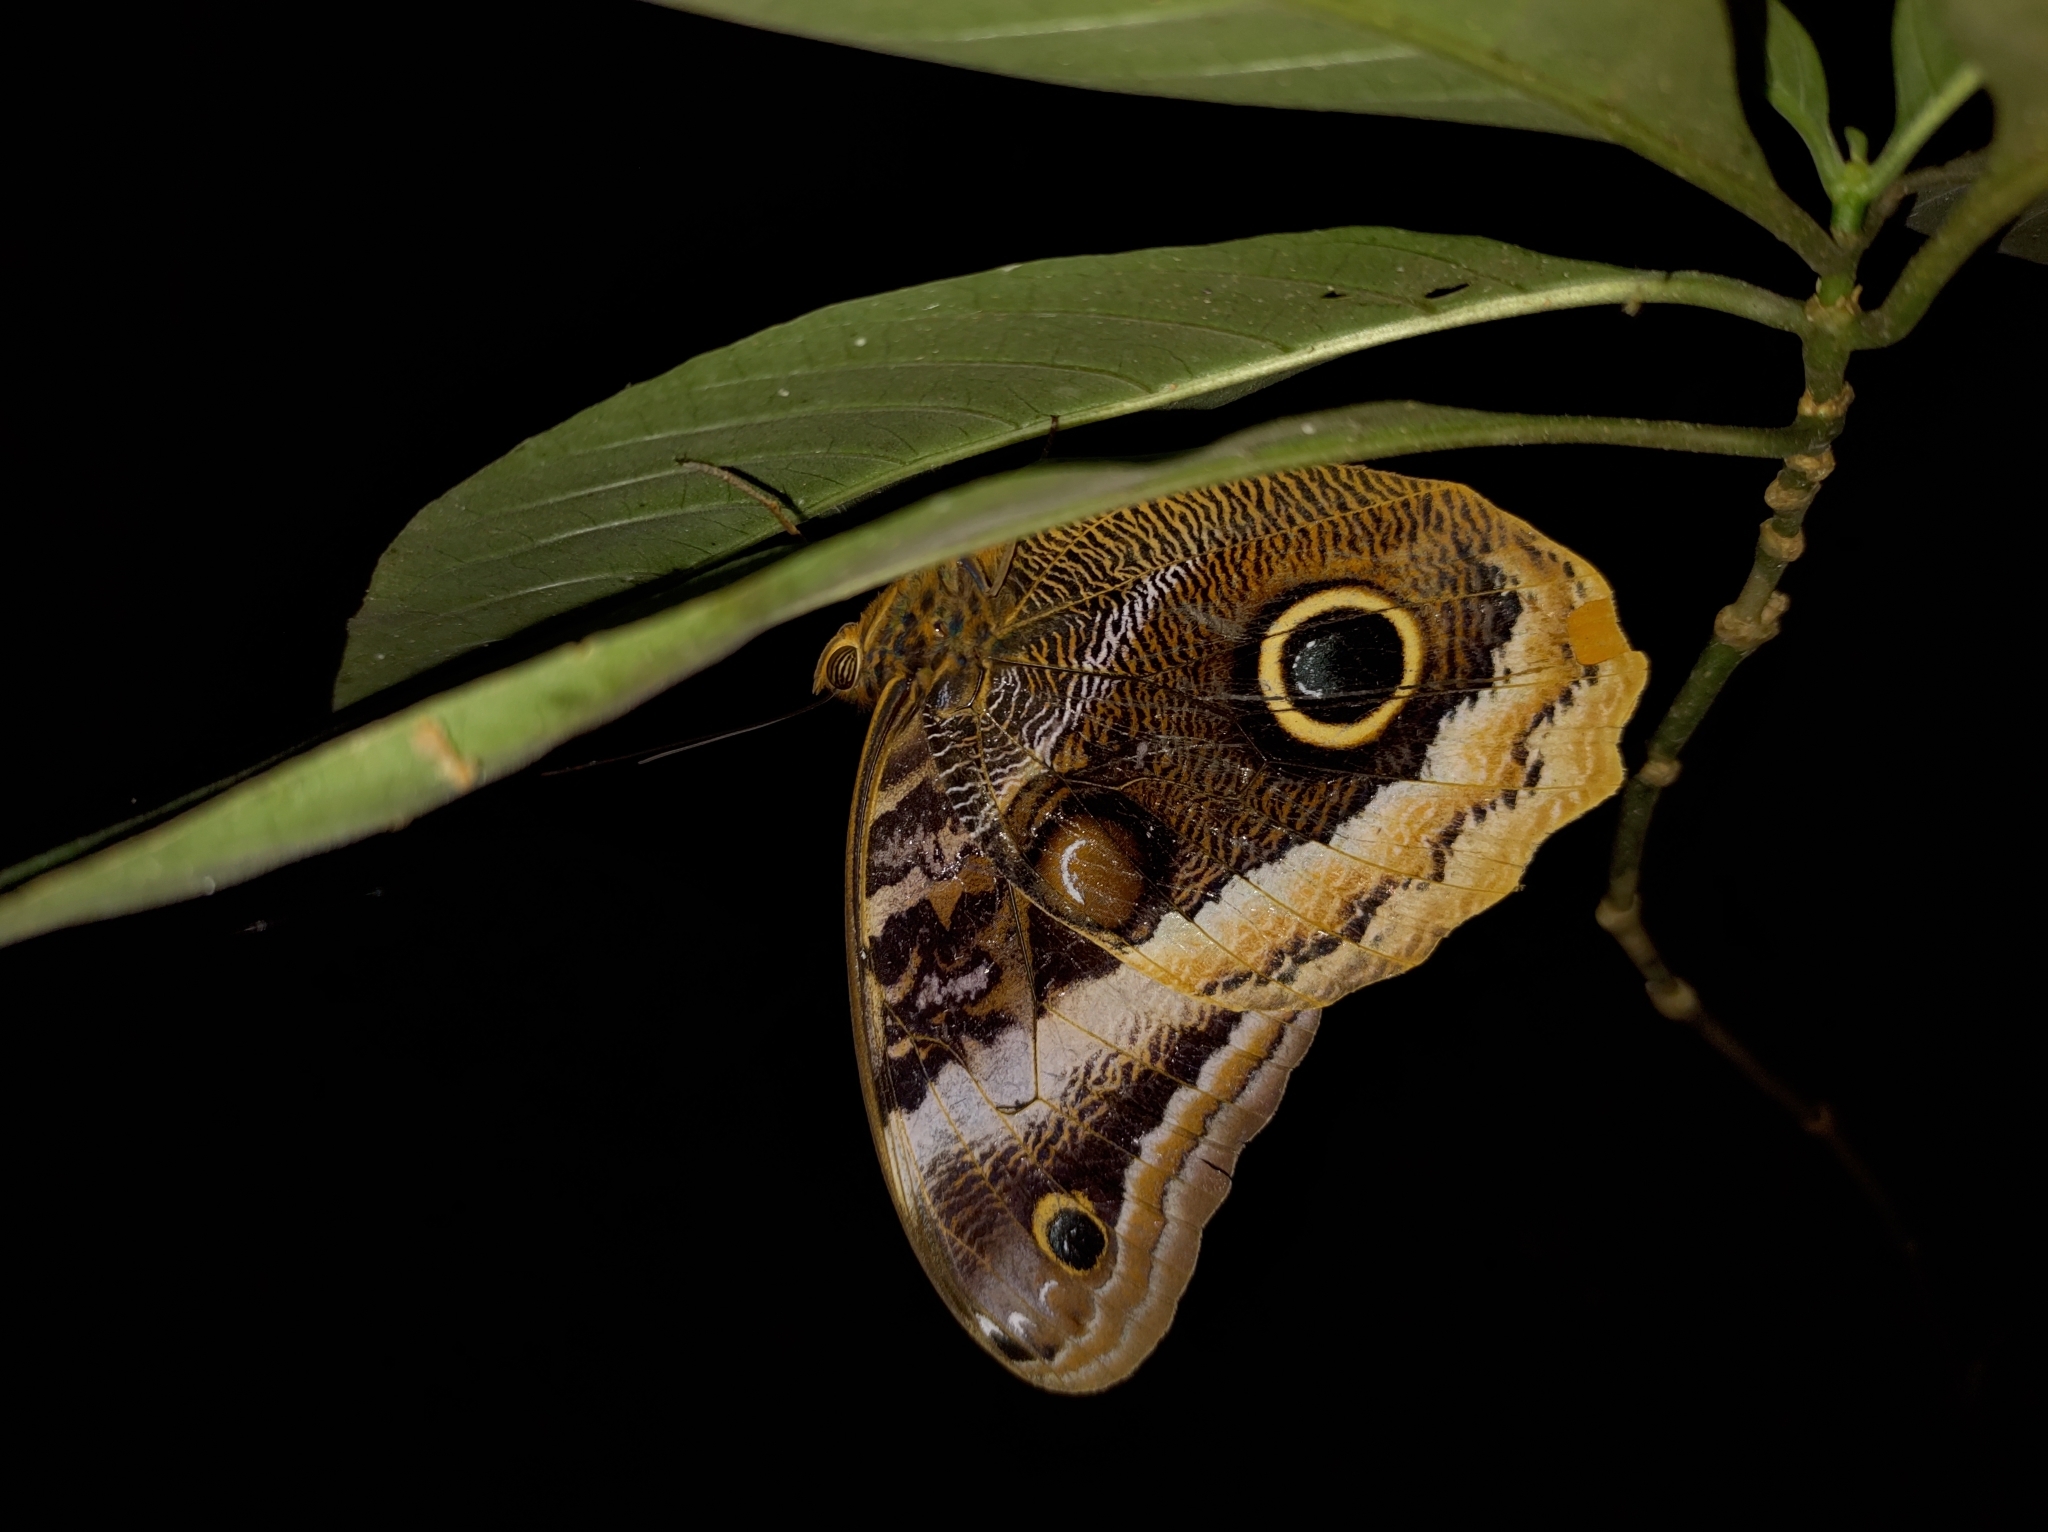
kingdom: Animalia
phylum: Arthropoda
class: Insecta
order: Lepidoptera
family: Nymphalidae
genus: Caligo
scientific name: Caligo uranus
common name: Gold-edged owl-butterfly
